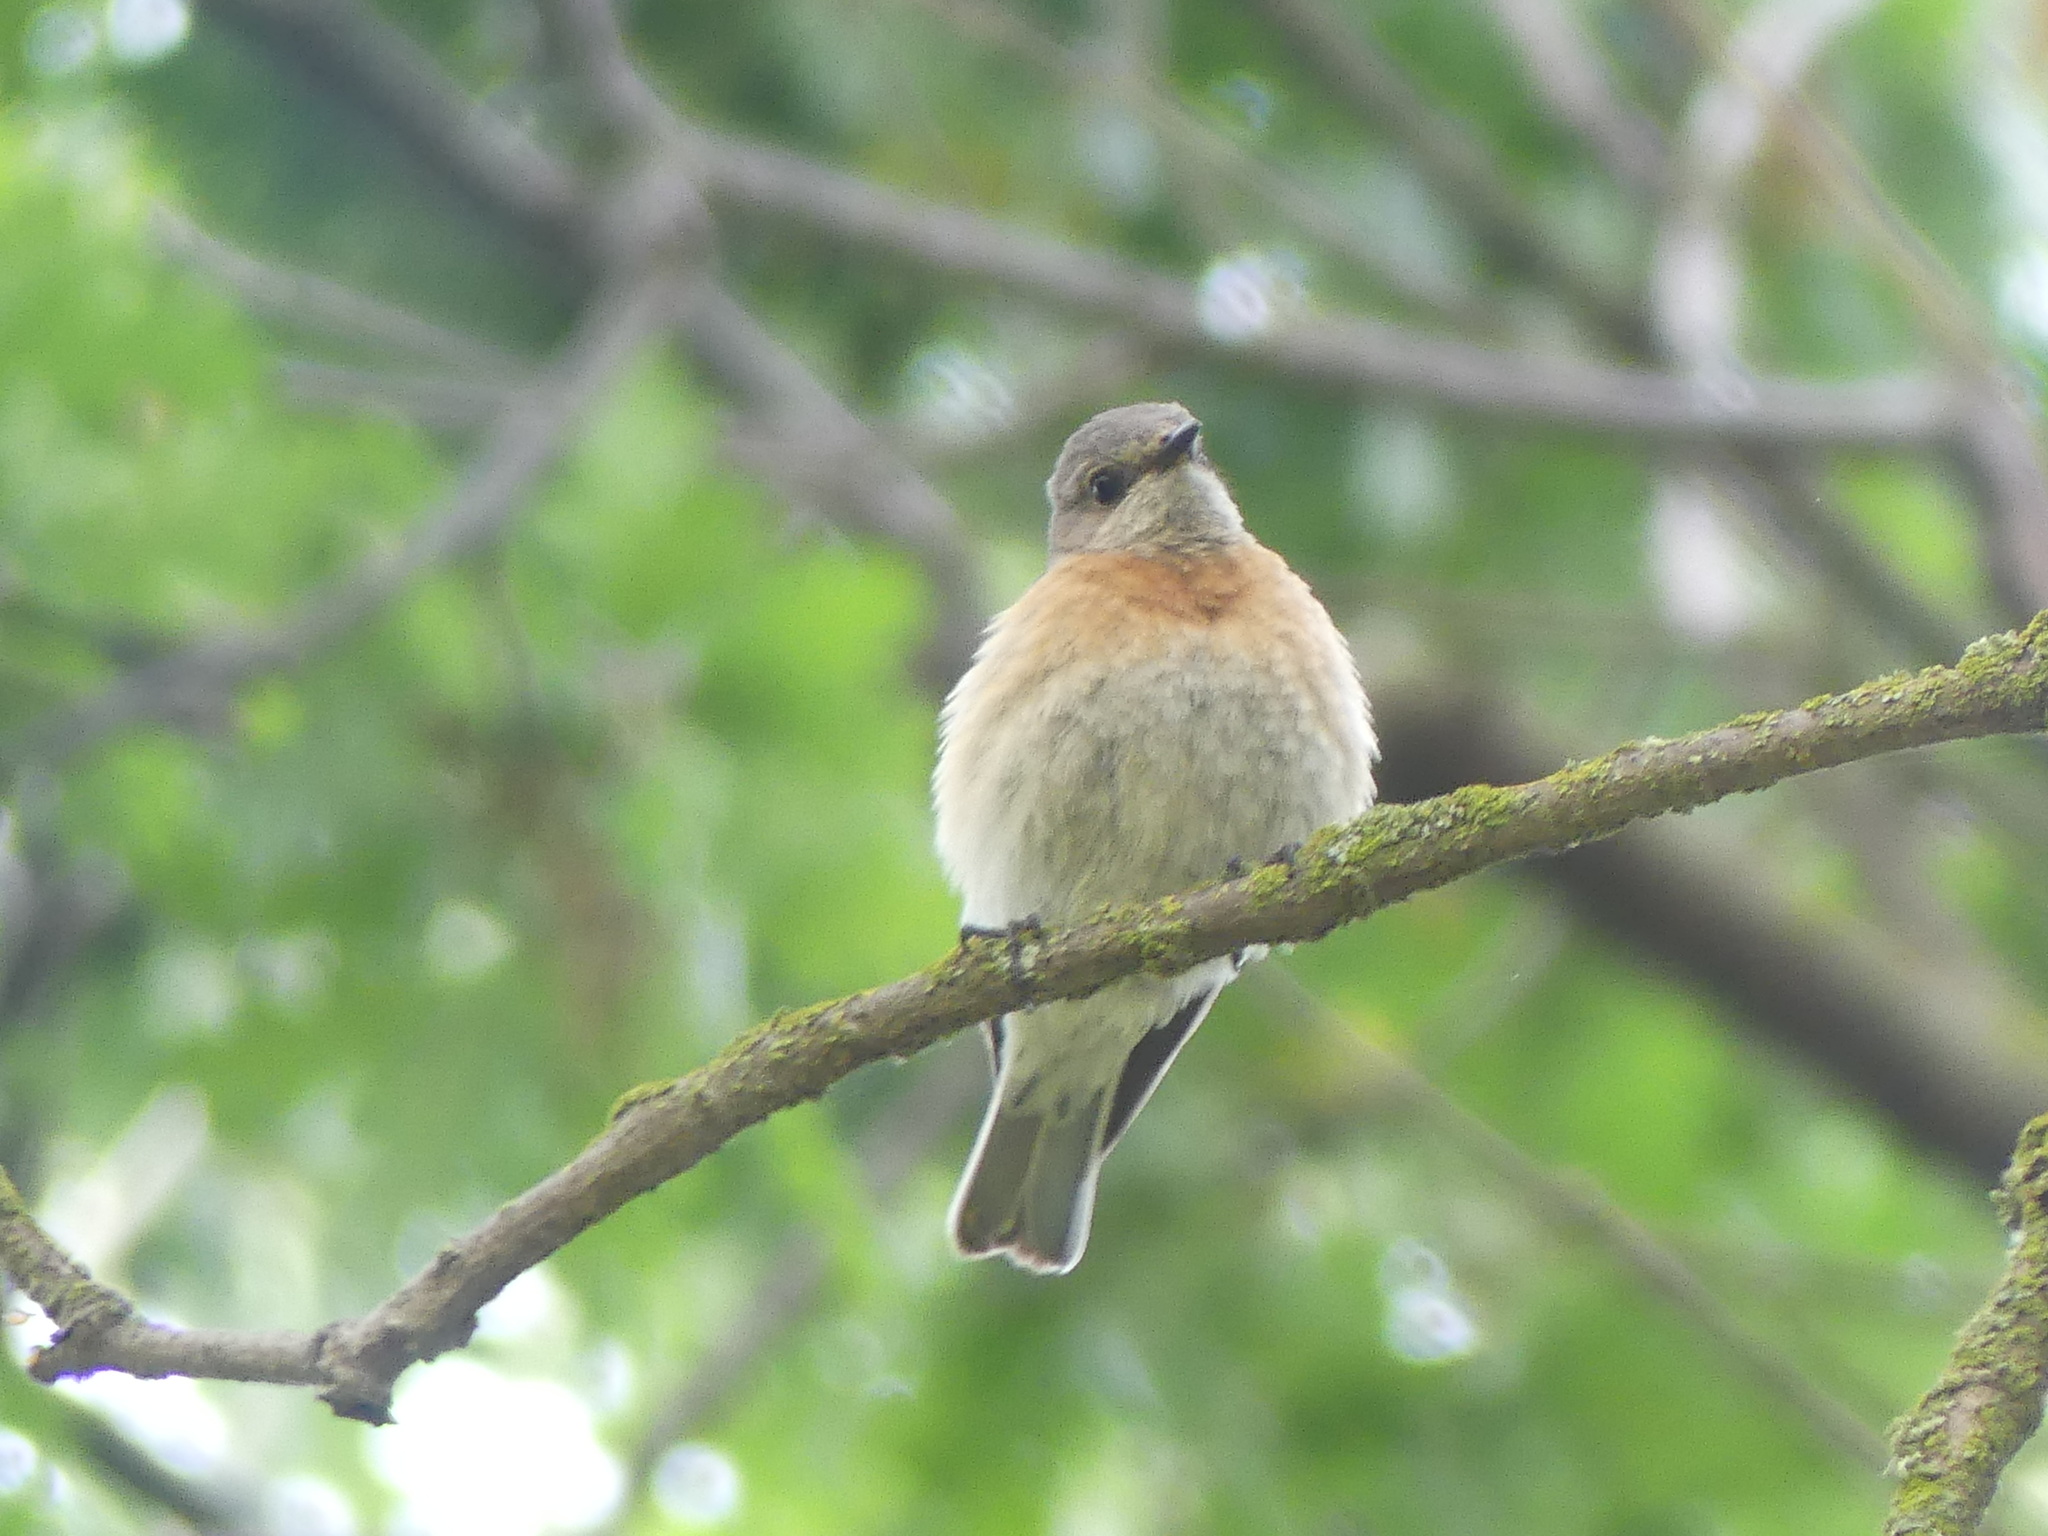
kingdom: Animalia
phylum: Chordata
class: Aves
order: Passeriformes
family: Turdidae
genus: Sialia
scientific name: Sialia mexicana
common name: Western bluebird
